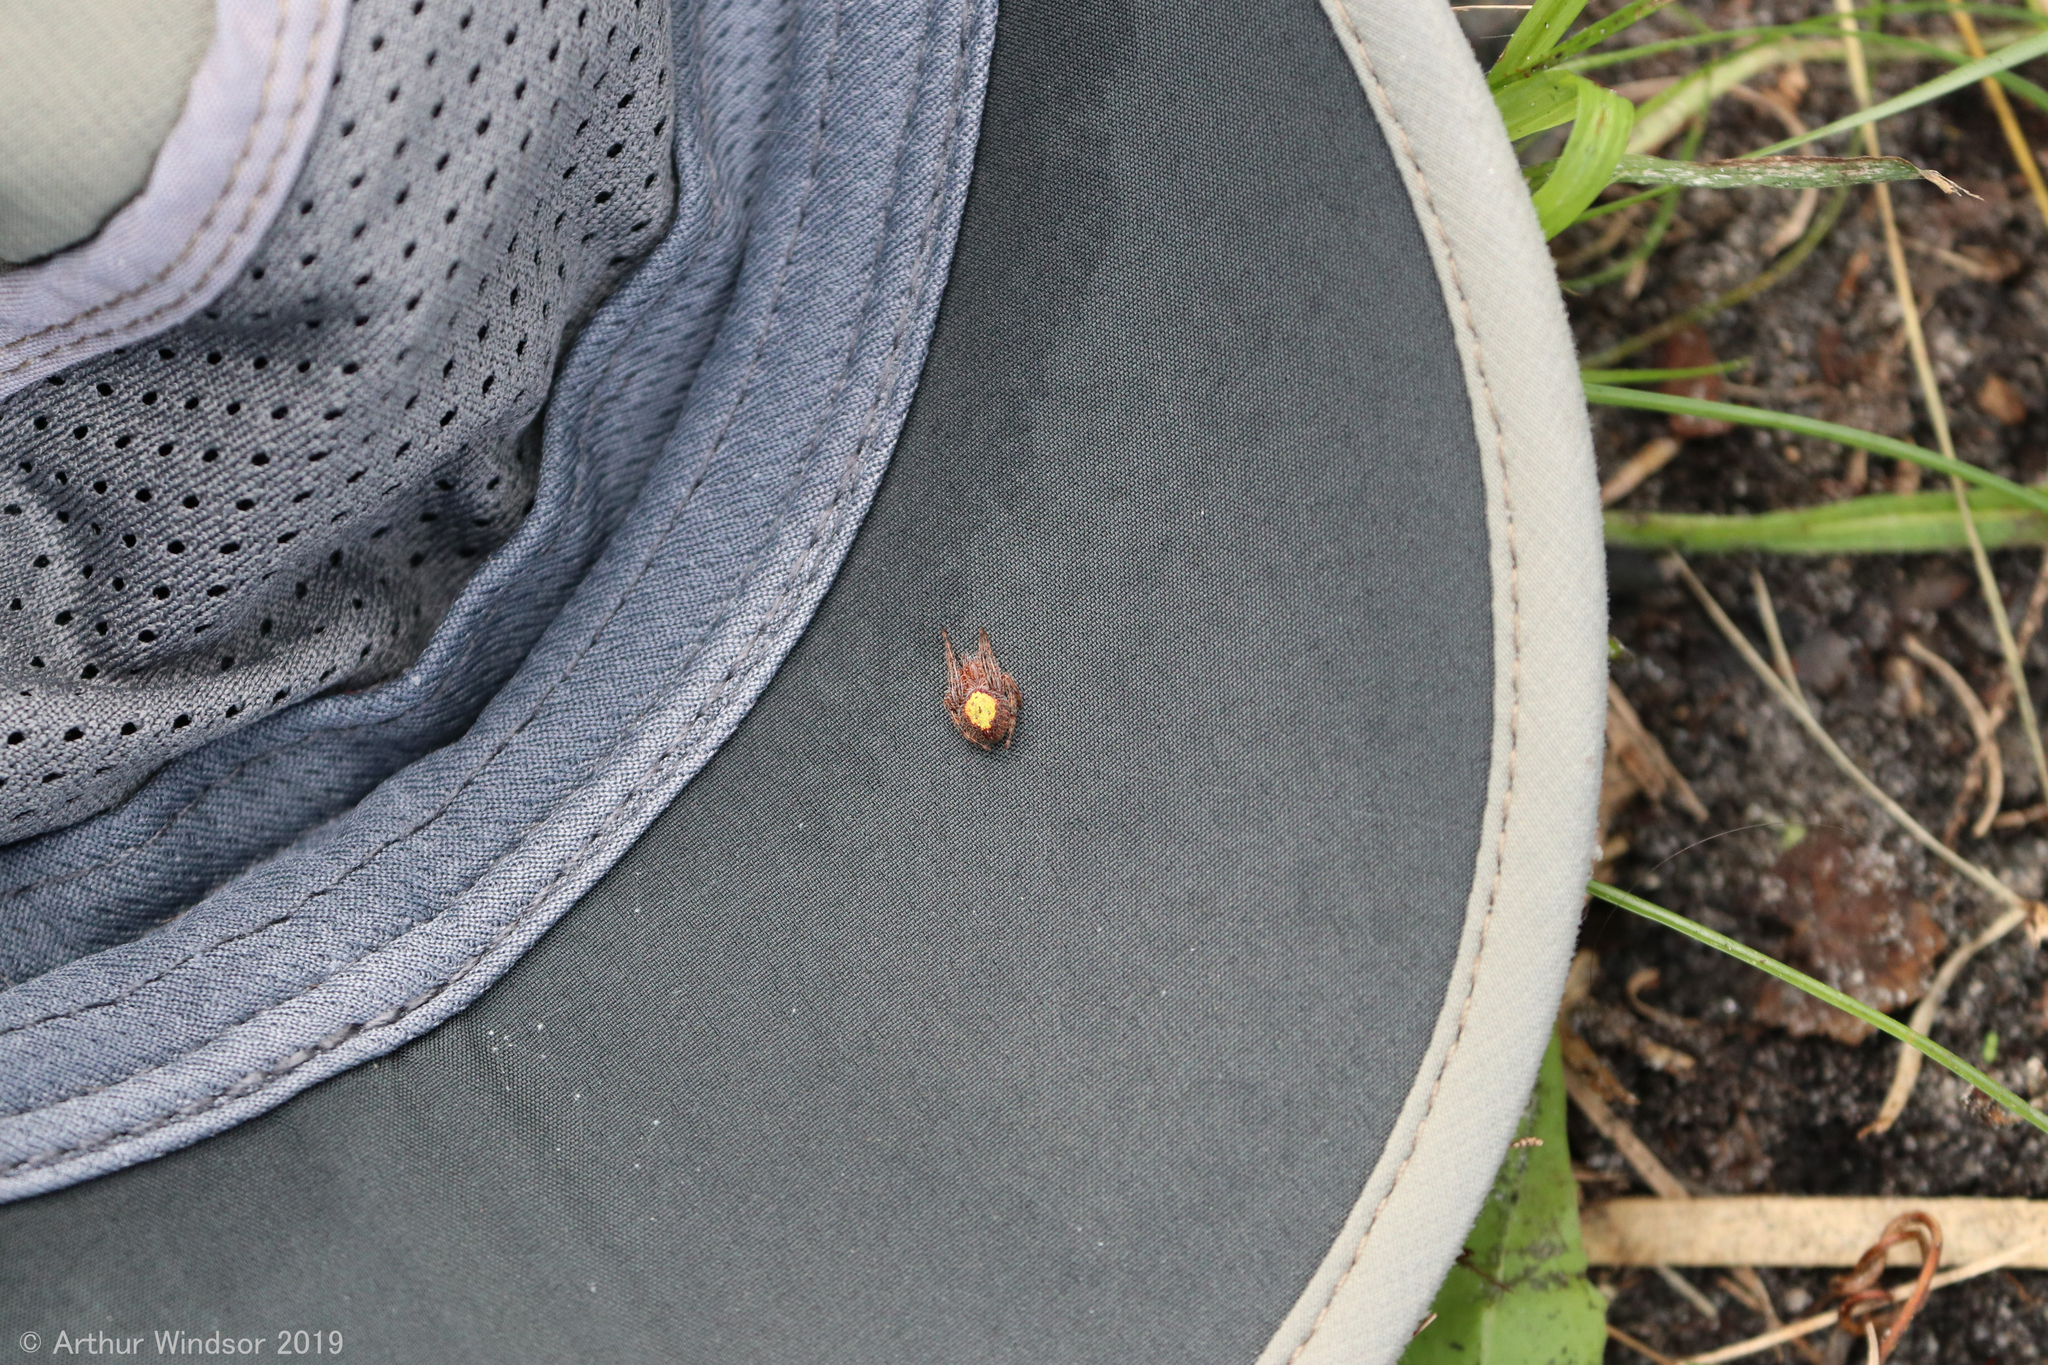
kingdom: Animalia
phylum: Arthropoda
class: Arachnida
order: Araneae
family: Araneidae
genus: Eriophora
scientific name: Eriophora ravilla
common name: Orb weavers
